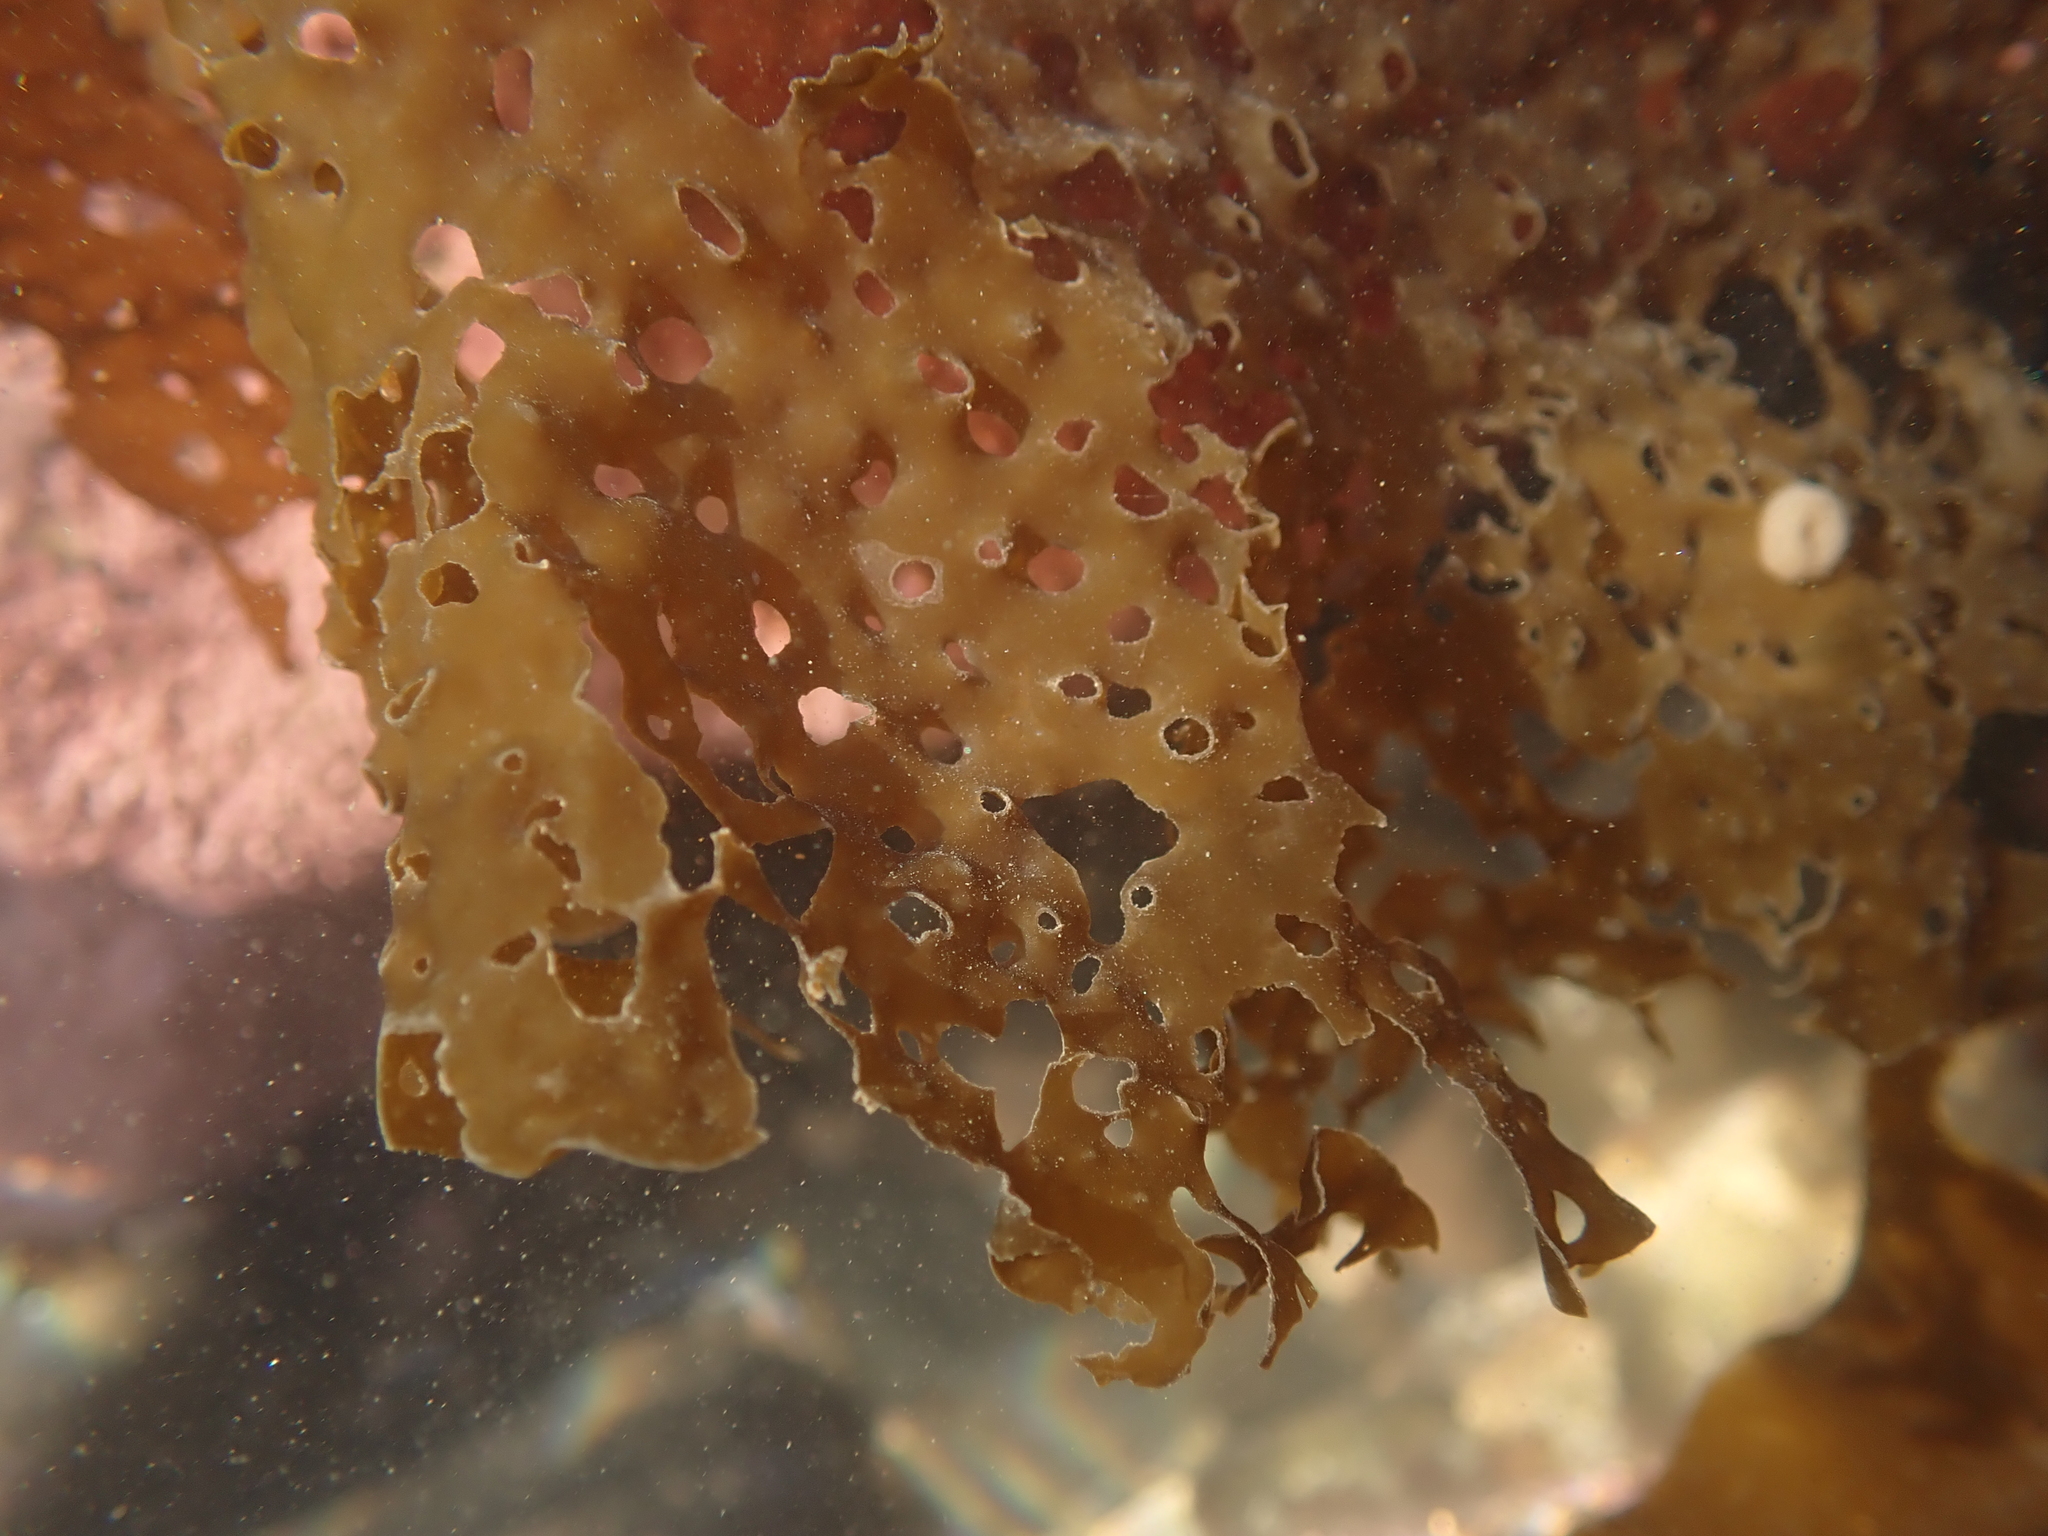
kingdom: Chromista
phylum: Ochrophyta
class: Phaeophyceae
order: Laminariales
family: Costariaceae
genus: Agarum
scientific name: Agarum clathratum
